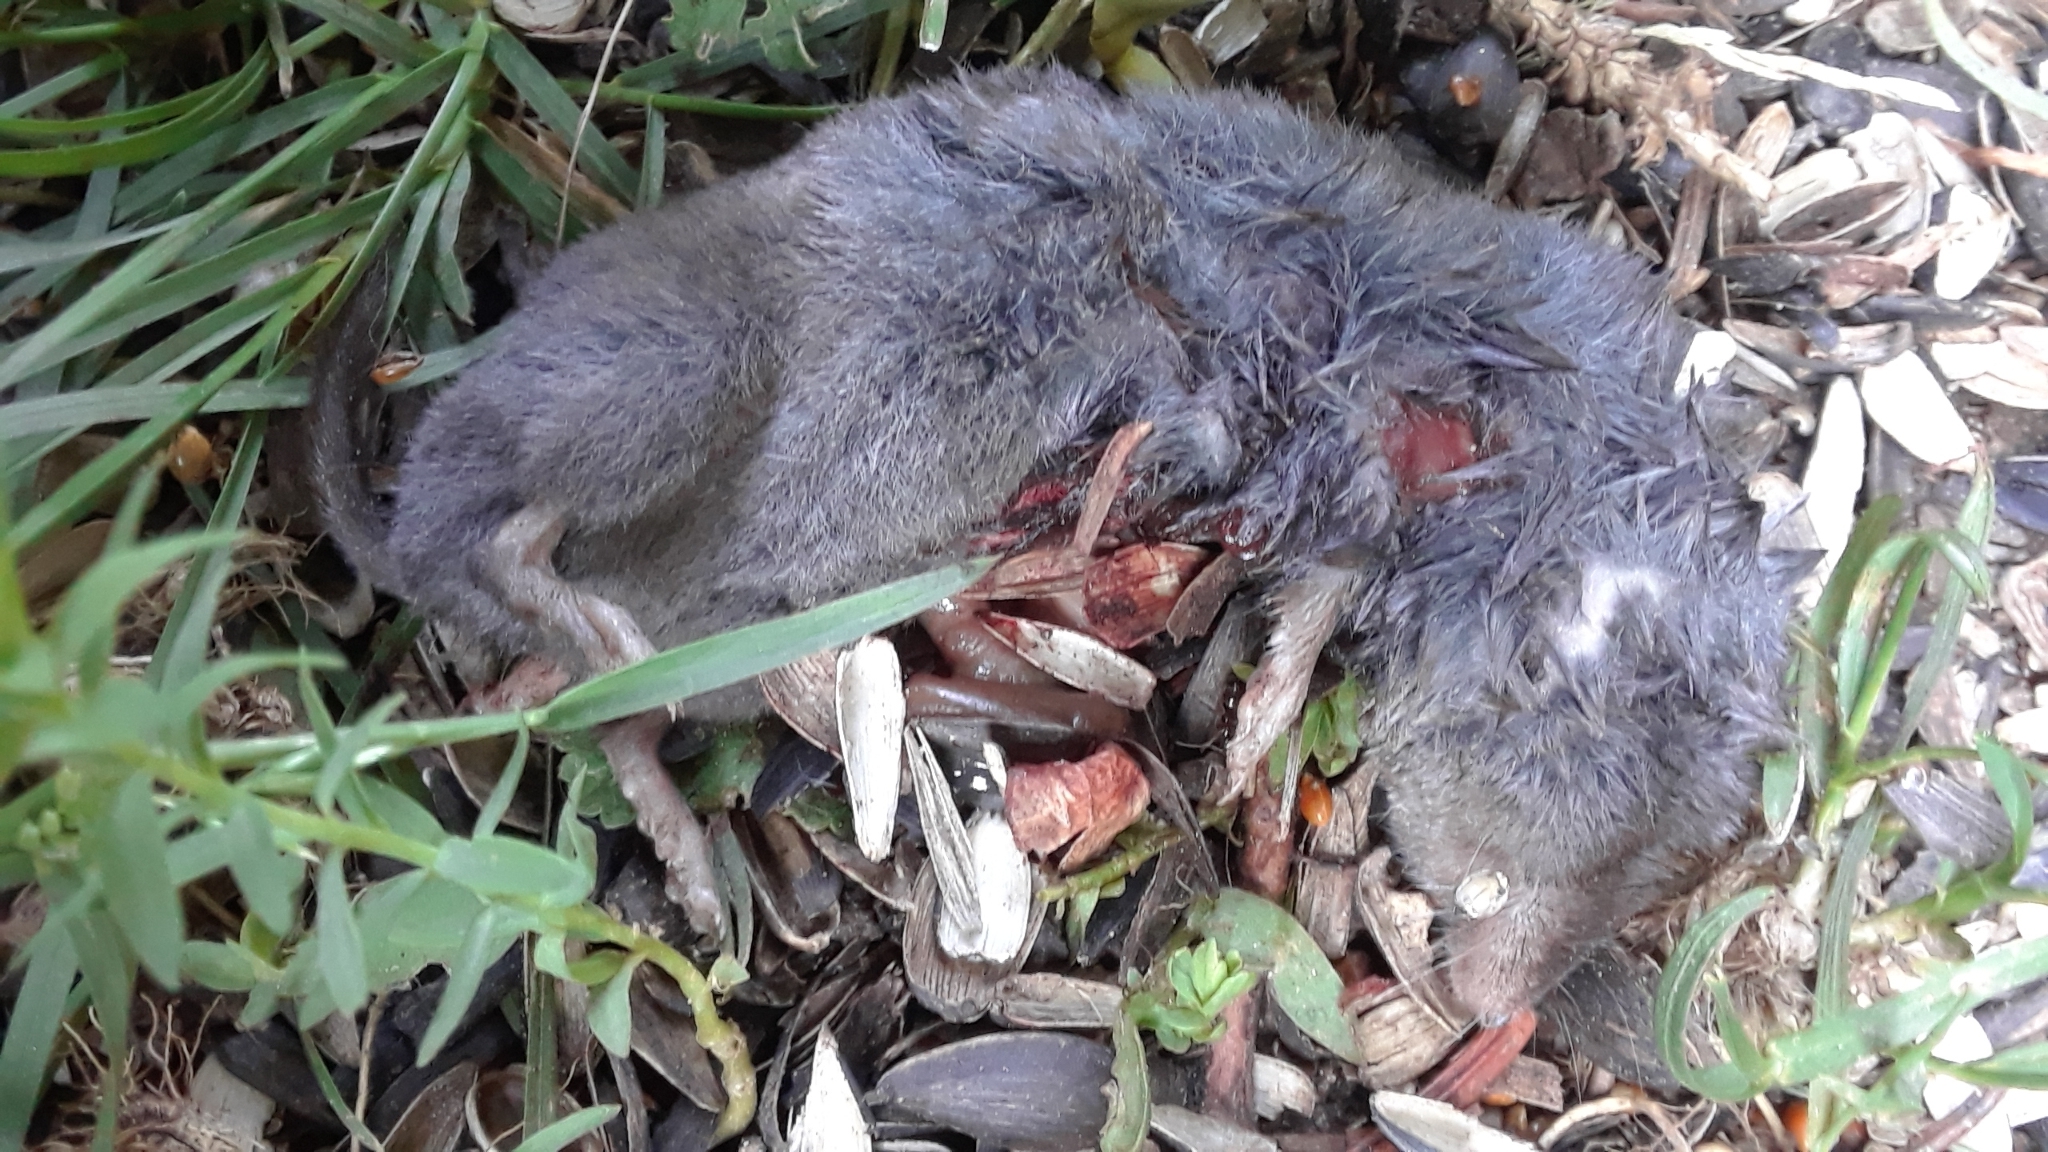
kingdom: Animalia
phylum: Chordata
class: Mammalia
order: Soricomorpha
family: Soricidae
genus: Blarina
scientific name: Blarina brevicauda
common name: Northern short-tailed shrew
